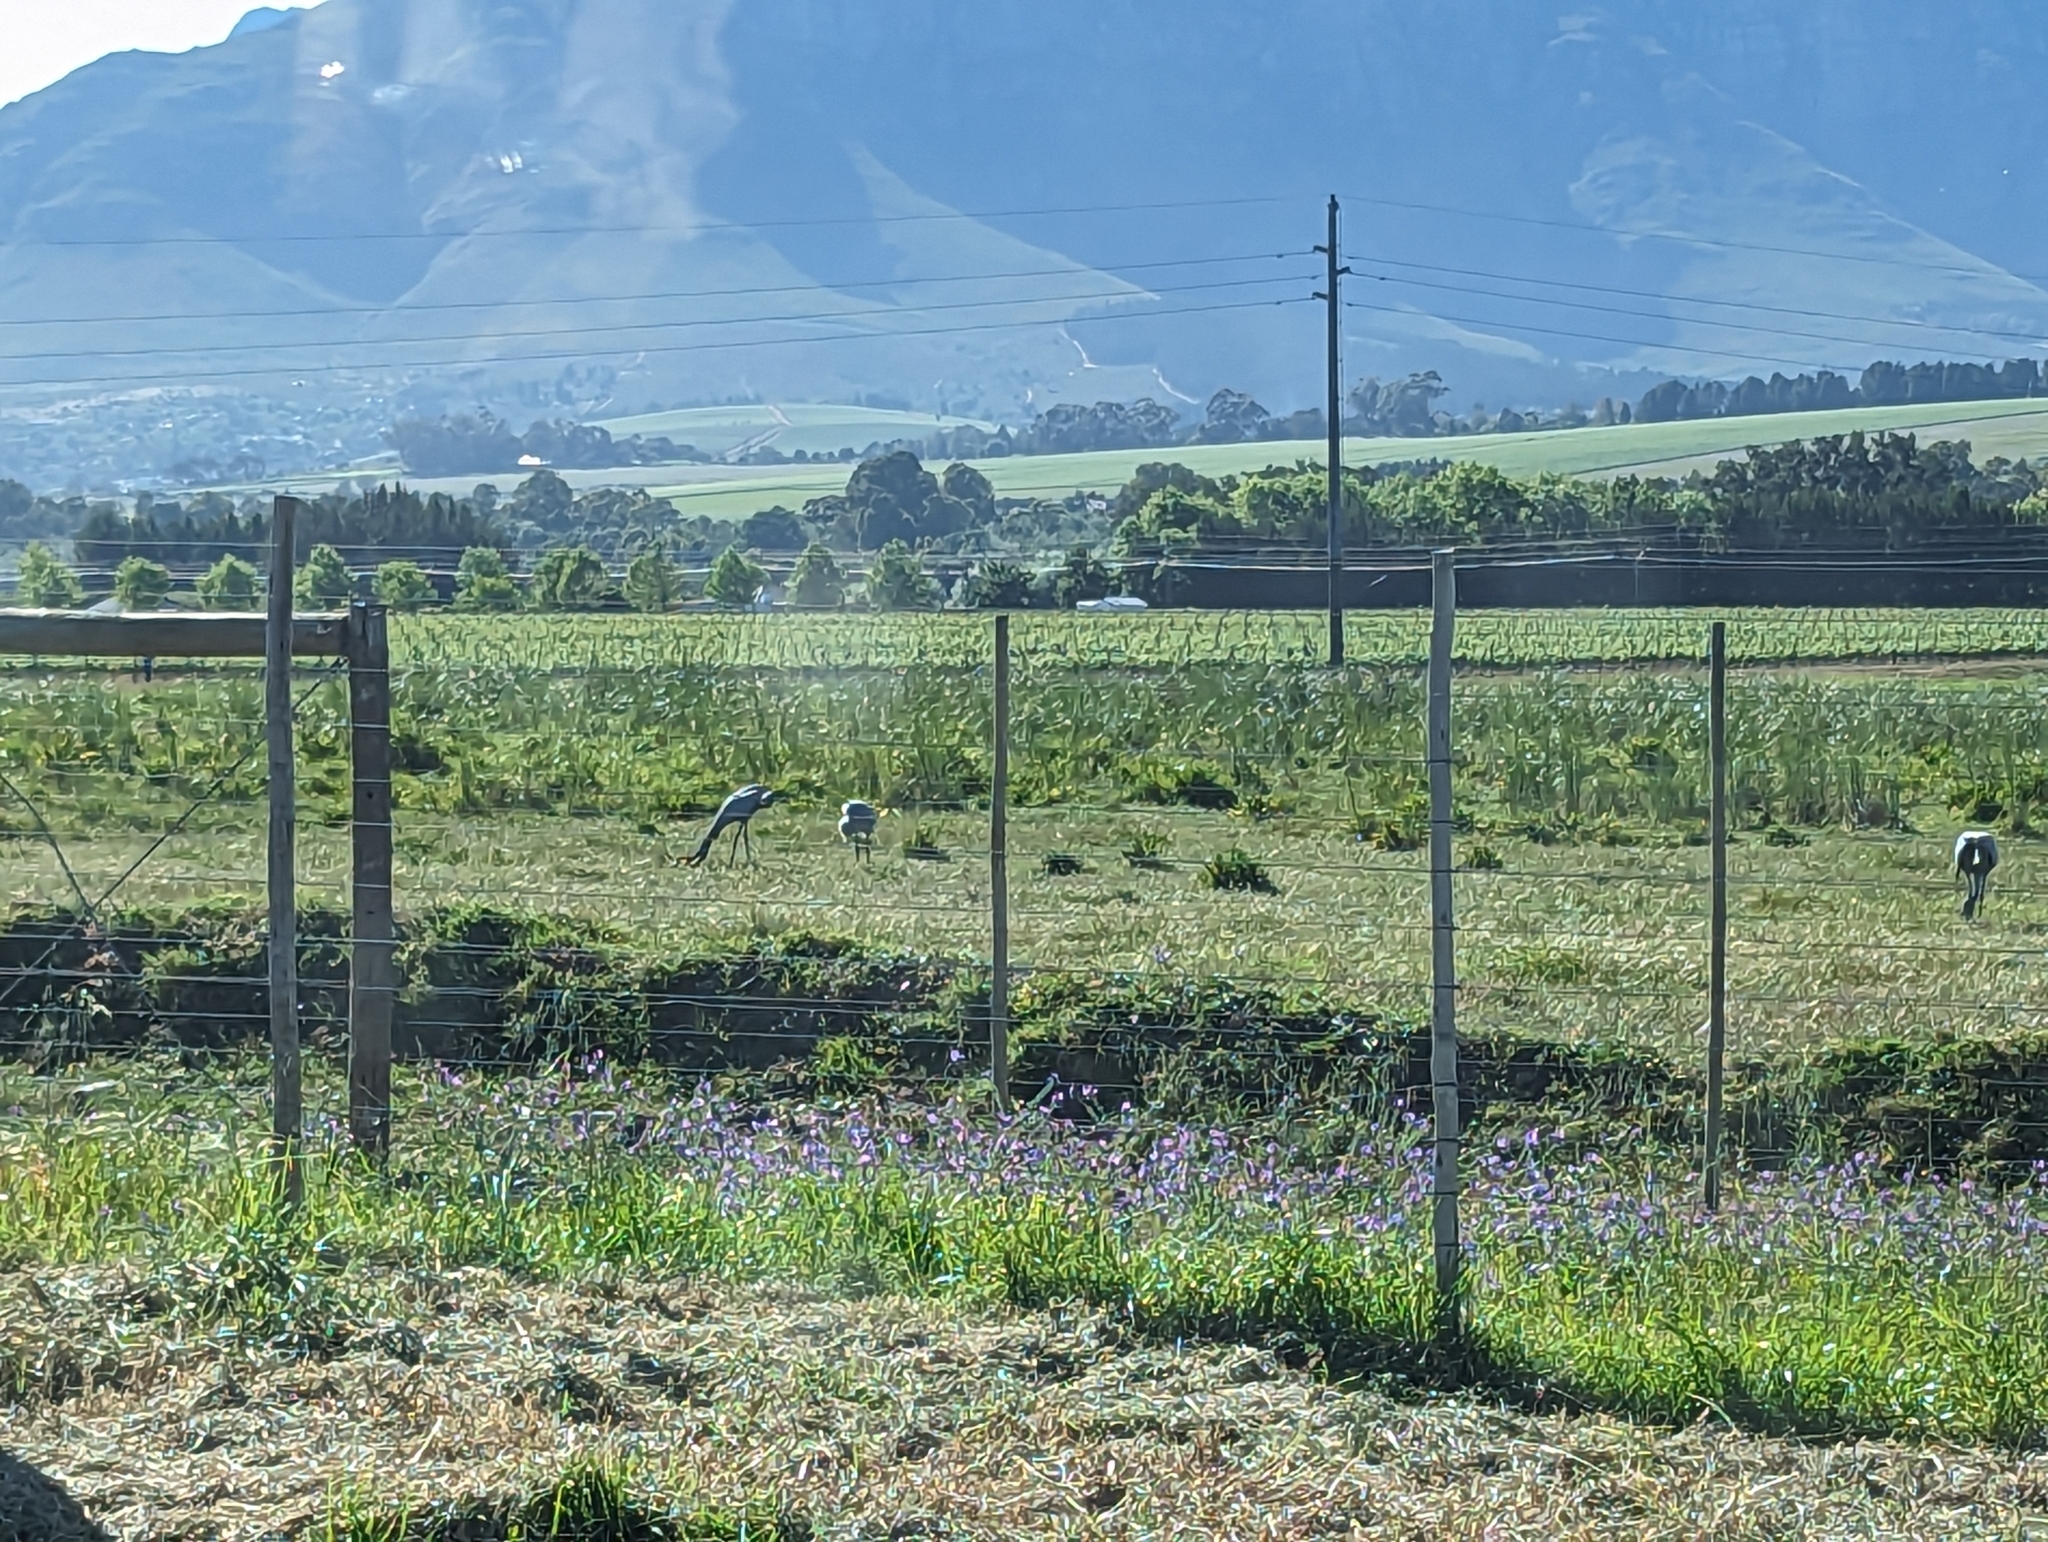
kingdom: Animalia
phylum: Chordata
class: Aves
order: Gruiformes
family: Gruidae
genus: Anthropoides
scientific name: Anthropoides paradiseus
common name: Blue crane
